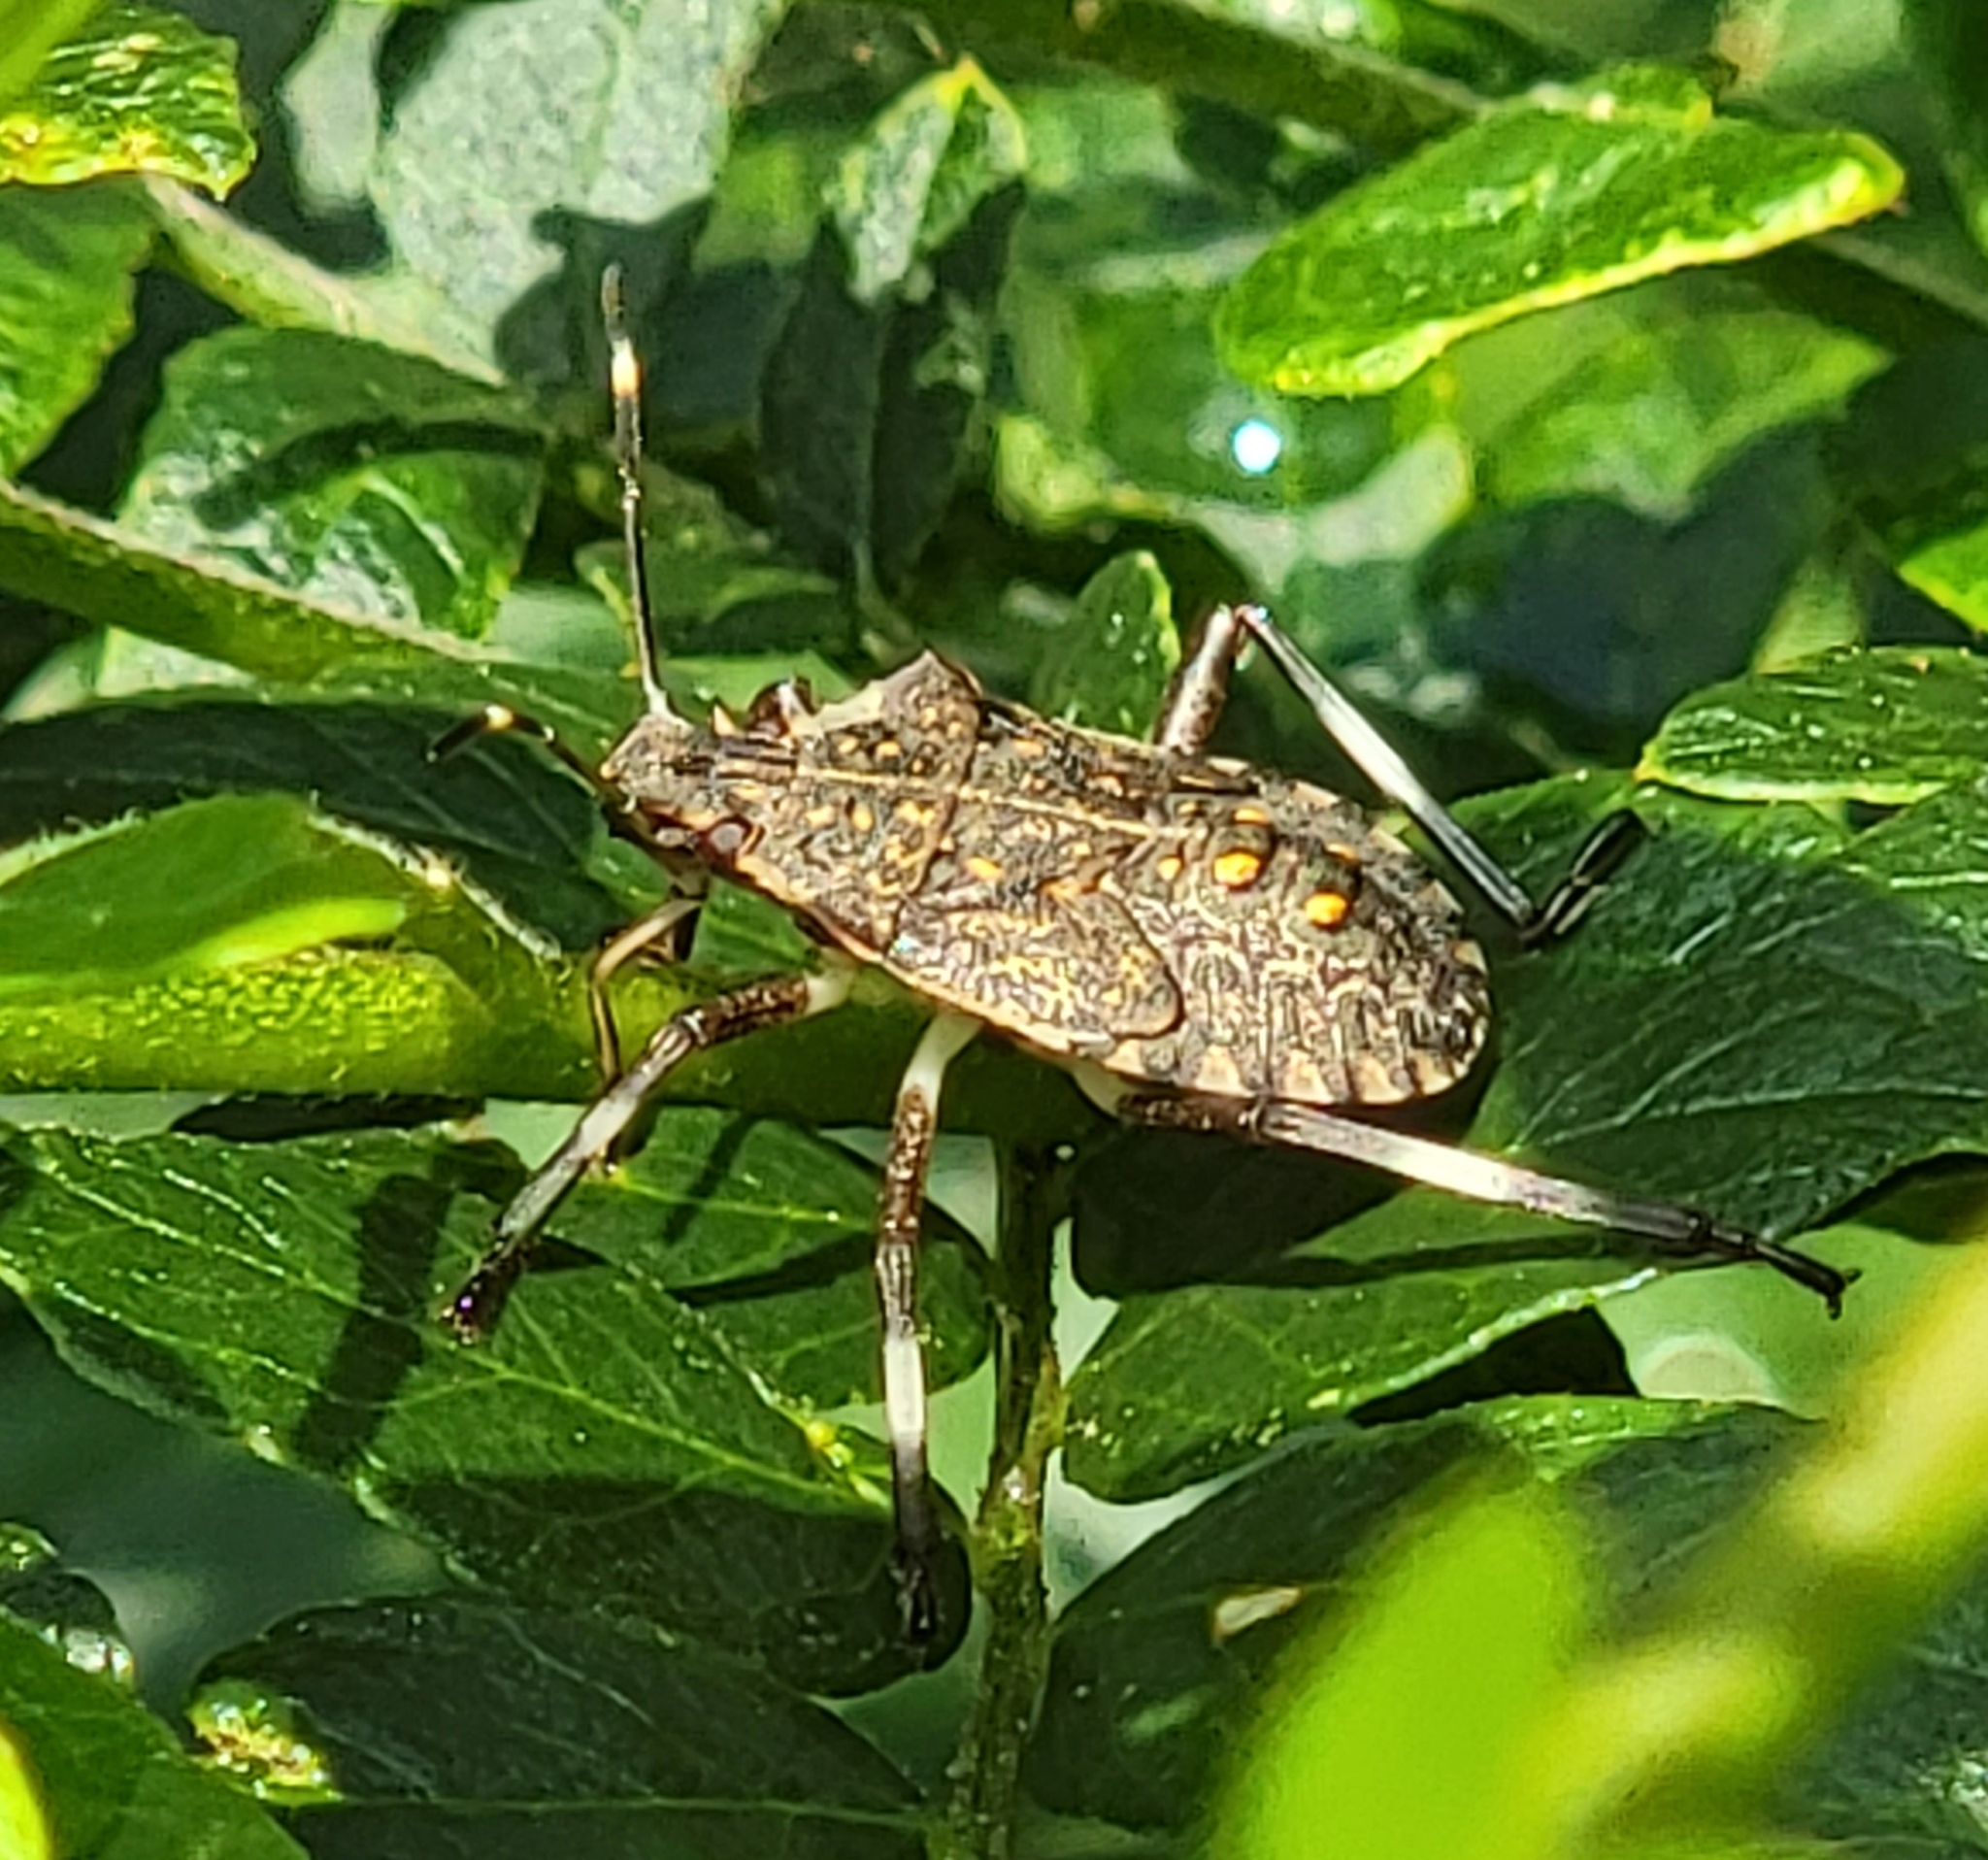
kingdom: Animalia
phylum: Arthropoda
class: Insecta
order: Hemiptera
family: Pentatomidae
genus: Halyomorpha
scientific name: Halyomorpha halys
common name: Brown marmorated stink bug
